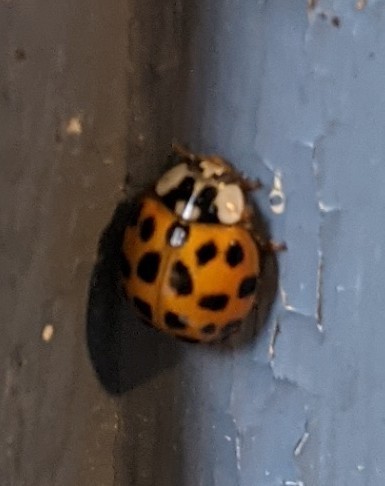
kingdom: Animalia
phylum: Arthropoda
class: Insecta
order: Coleoptera
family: Coccinellidae
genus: Harmonia
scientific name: Harmonia axyridis
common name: Harlequin ladybird
